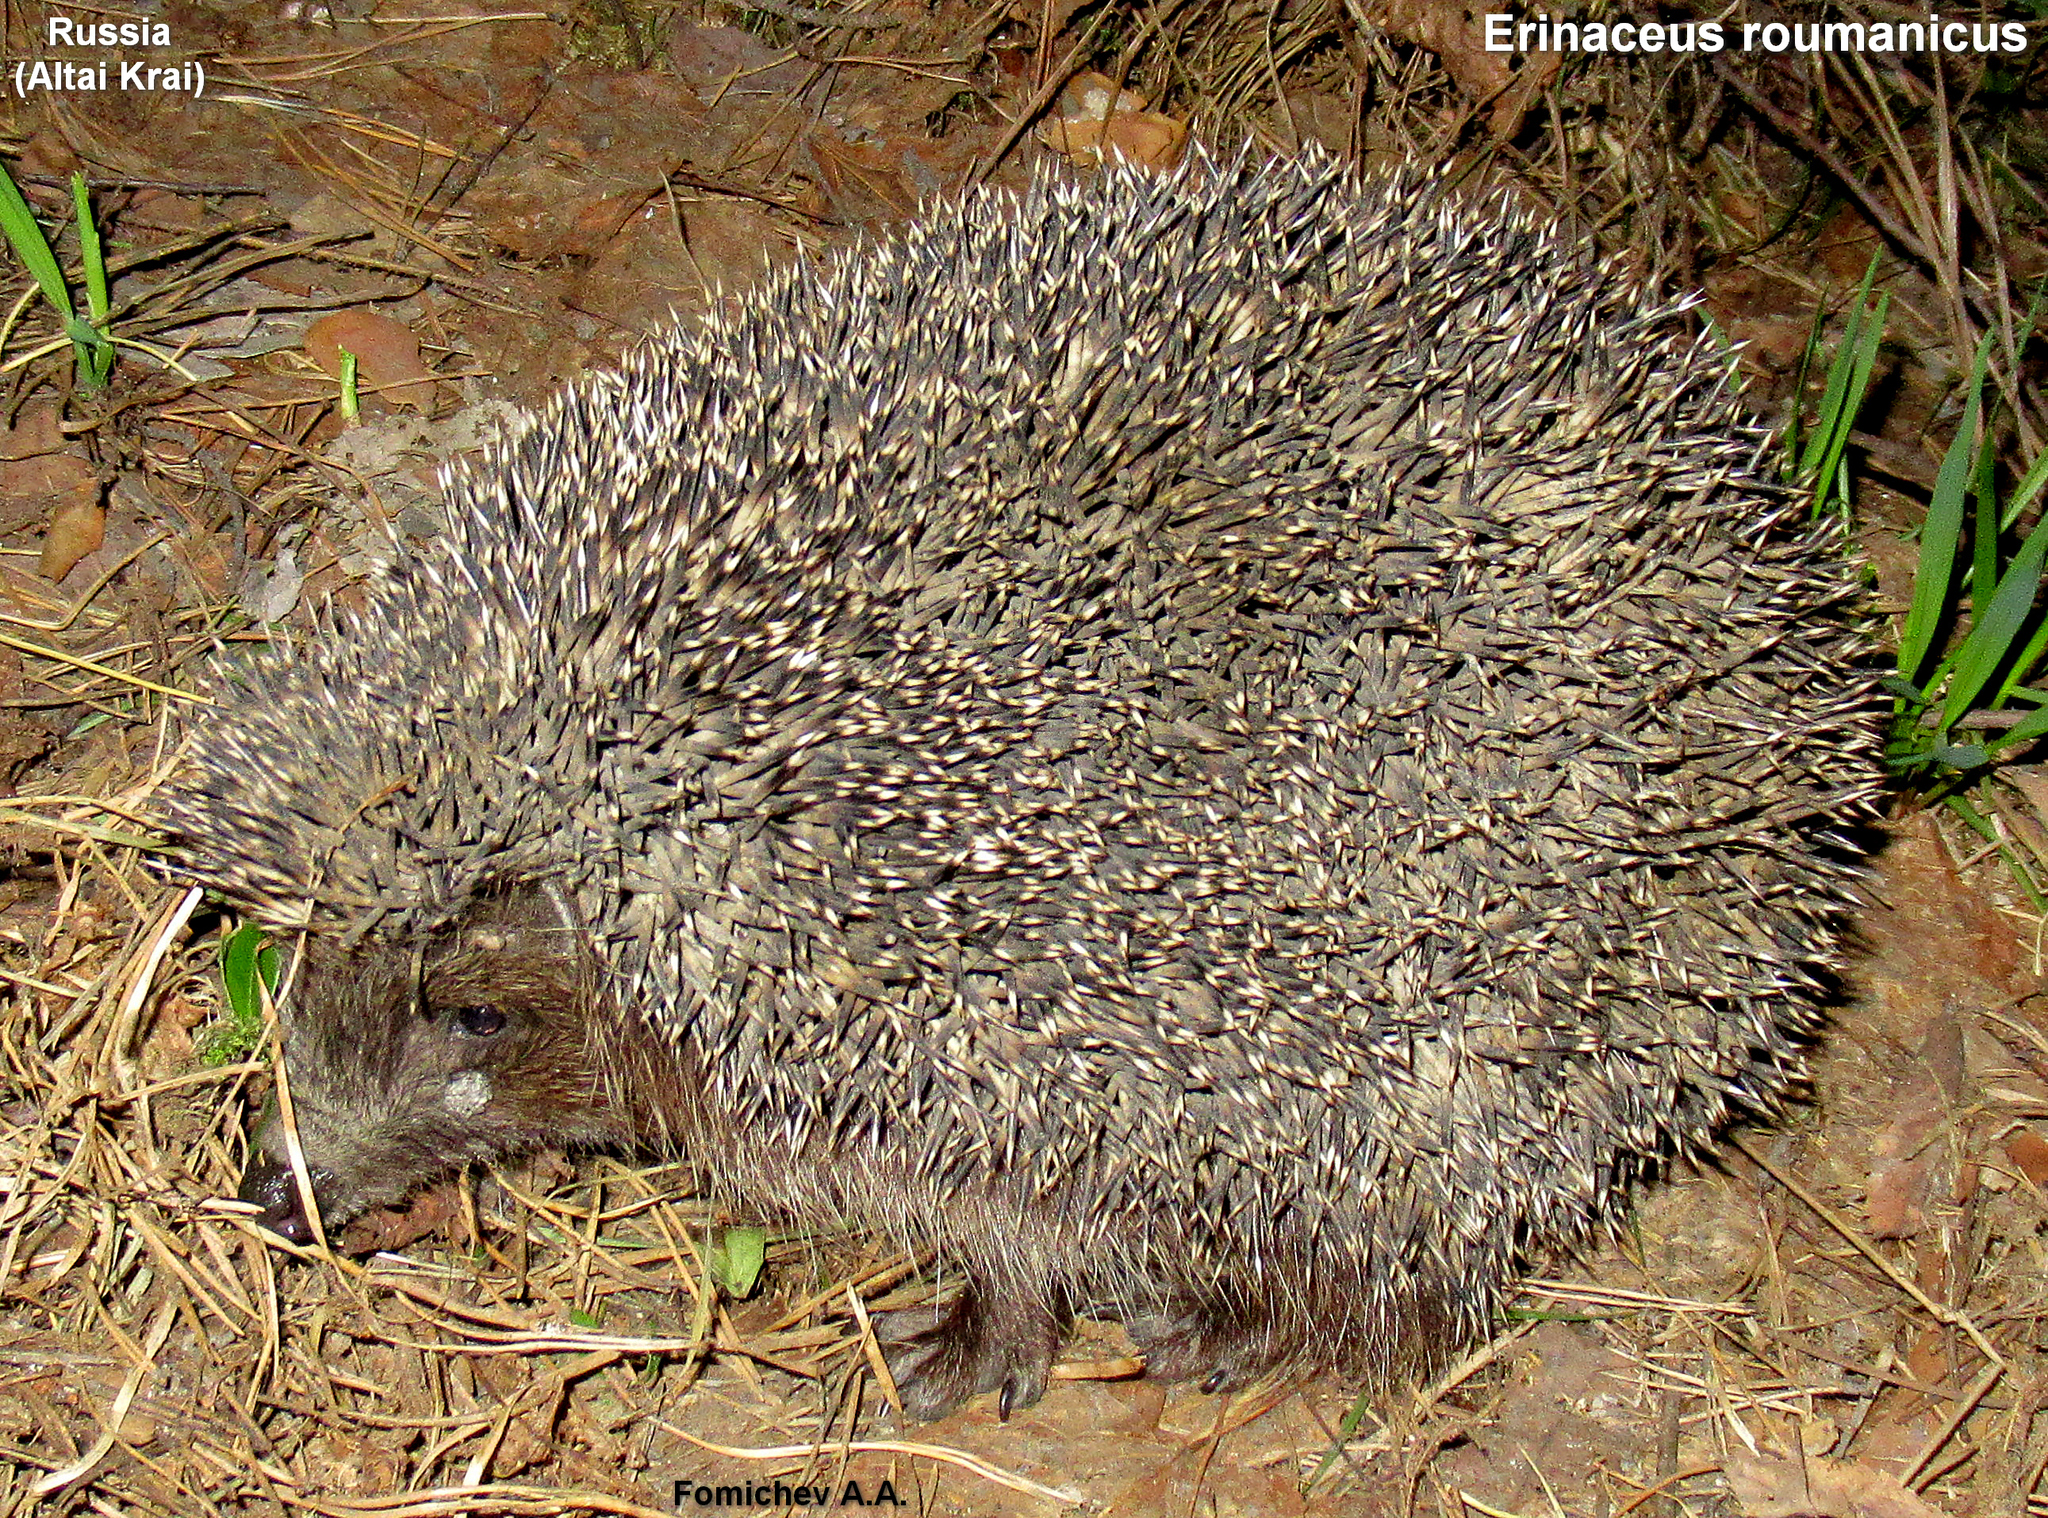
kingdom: Animalia
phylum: Chordata
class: Mammalia
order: Erinaceomorpha
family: Erinaceidae
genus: Erinaceus
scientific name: Erinaceus roumanicus
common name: Northern white-breasted hedgehog
